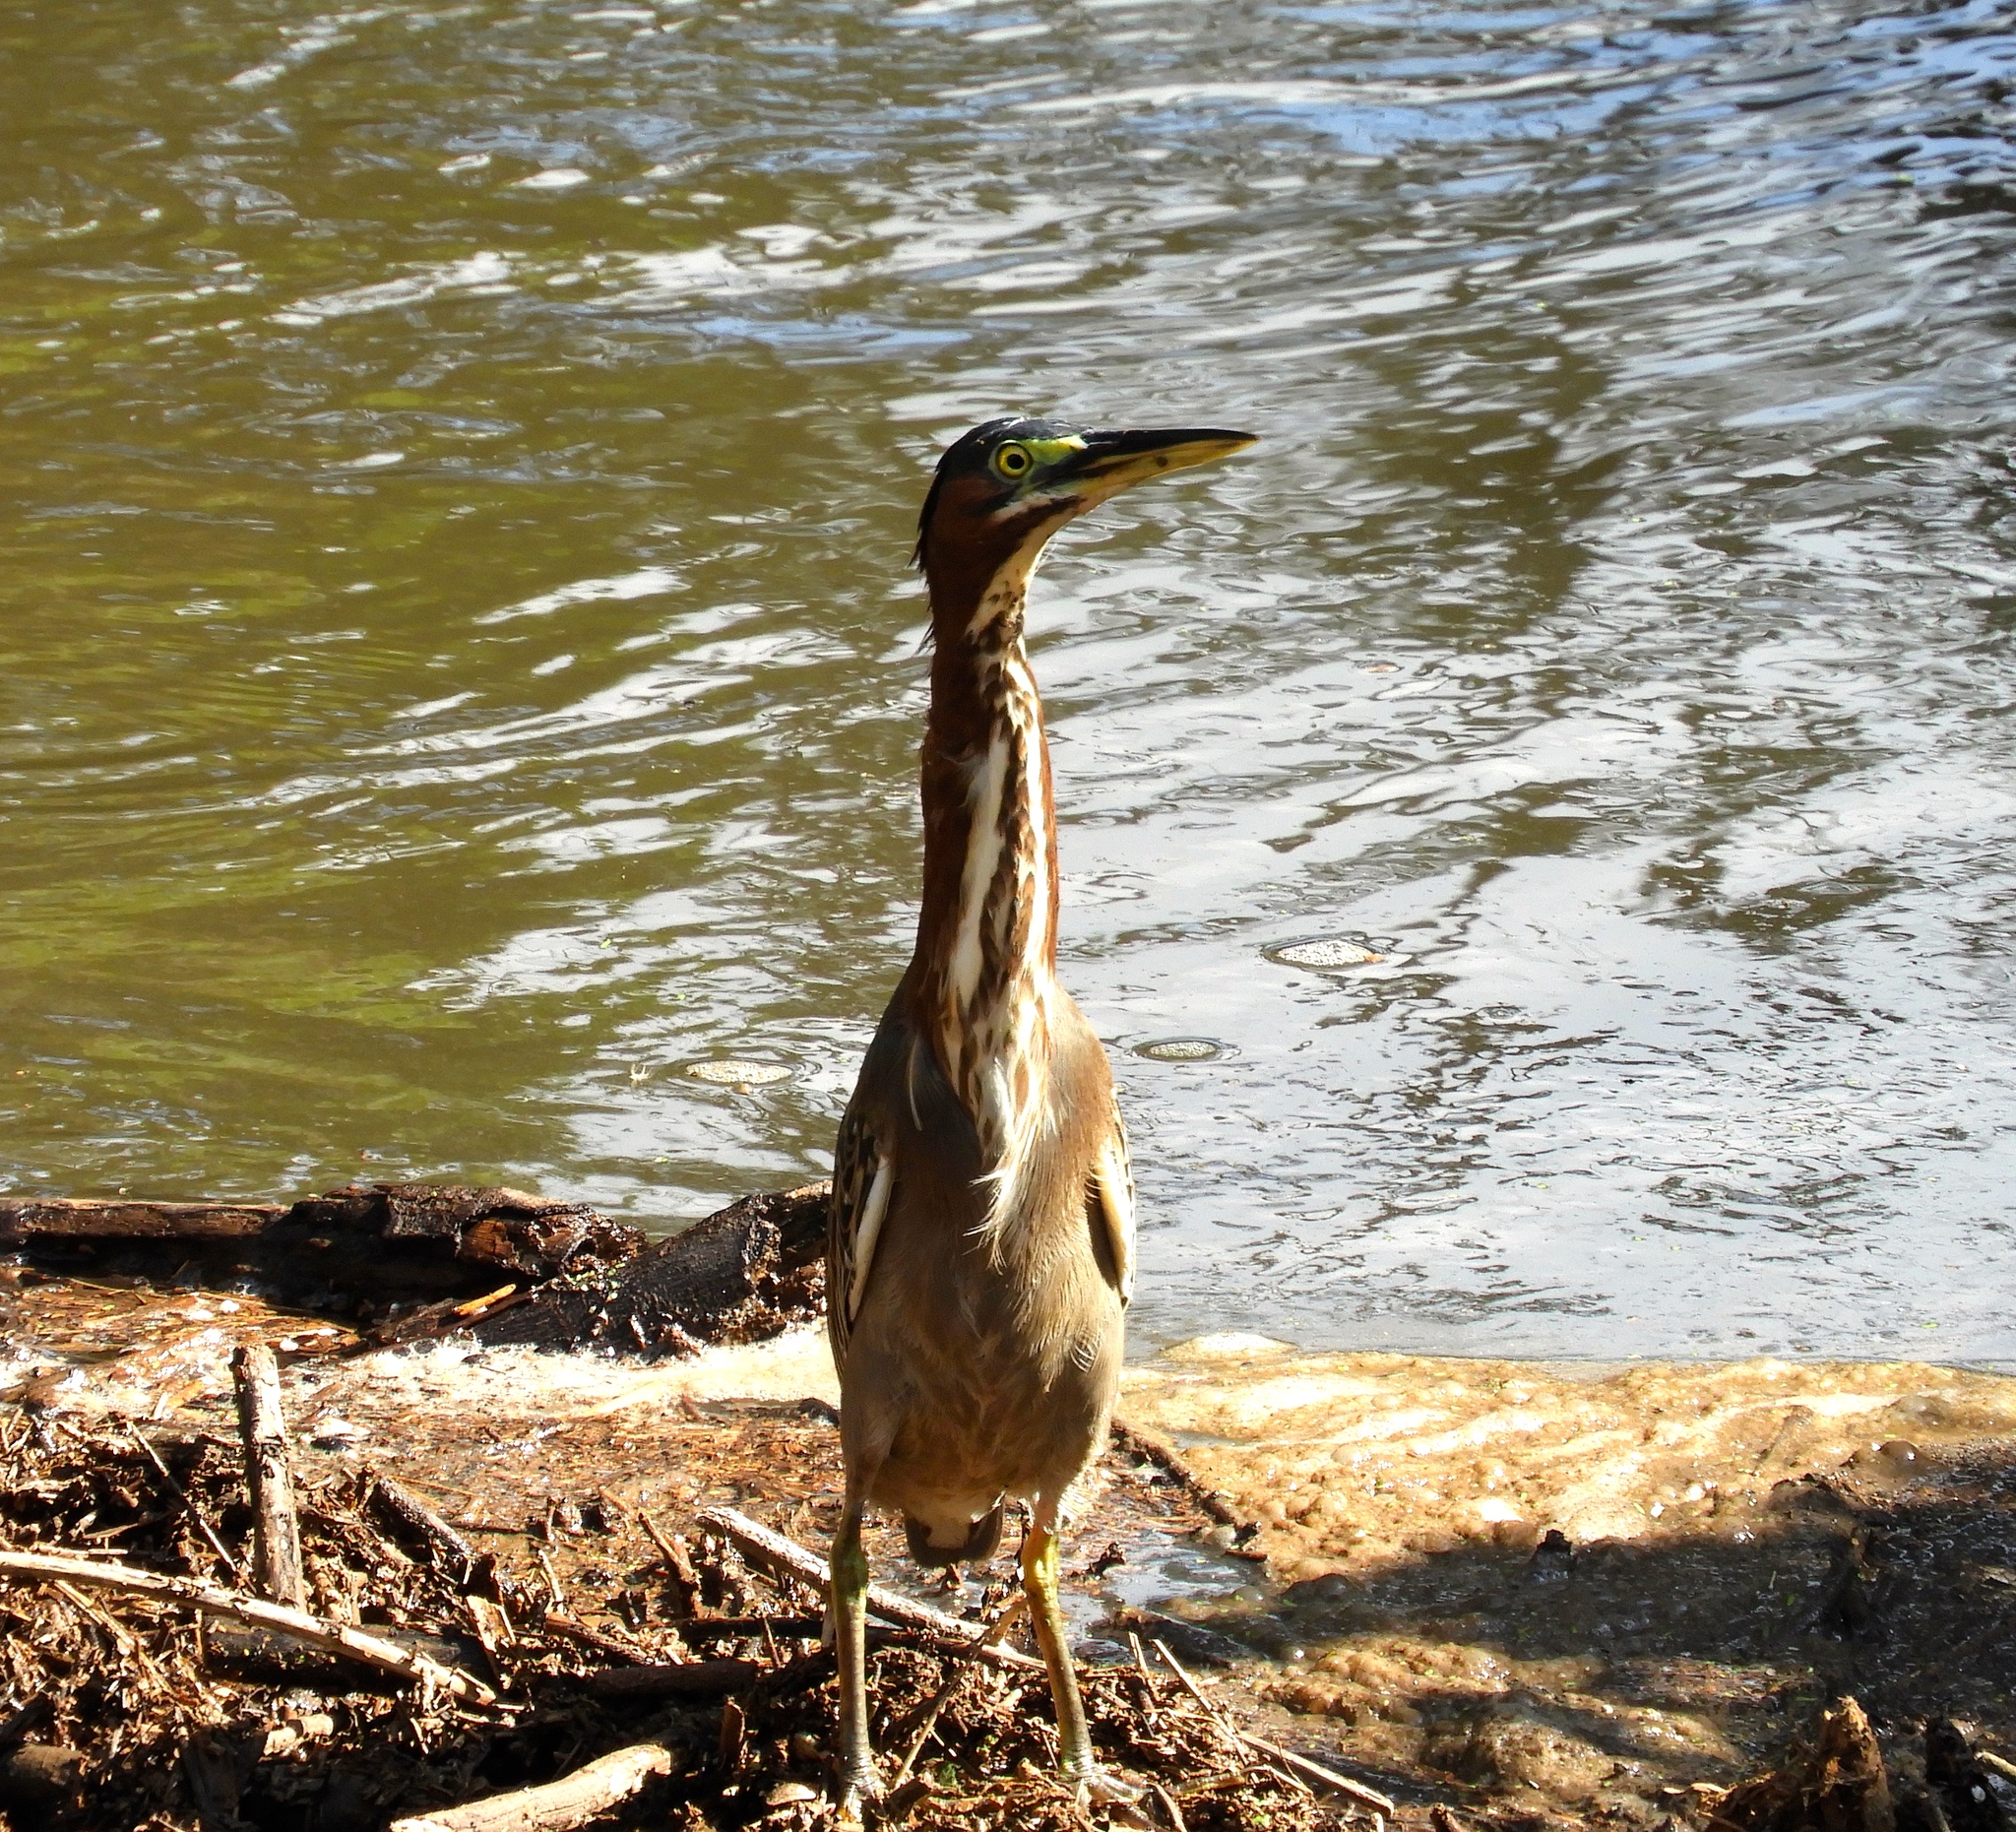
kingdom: Animalia
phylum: Chordata
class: Aves
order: Pelecaniformes
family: Ardeidae
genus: Butorides
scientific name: Butorides virescens
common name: Green heron
